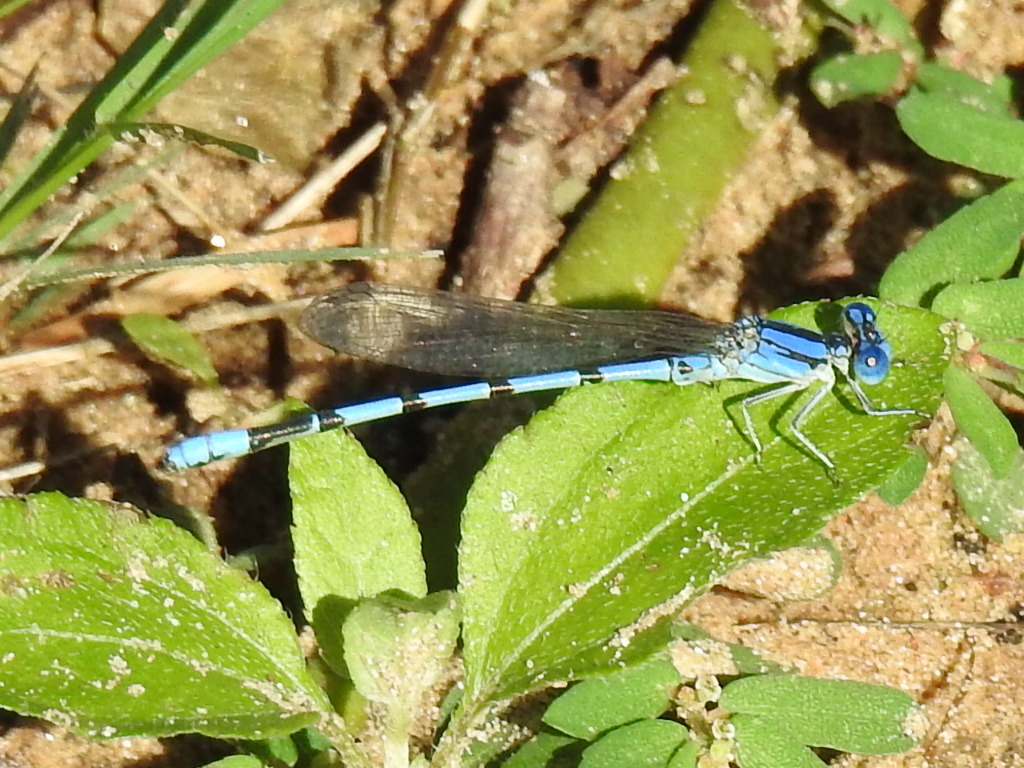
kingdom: Animalia
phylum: Arthropoda
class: Insecta
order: Odonata
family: Coenagrionidae
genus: Argia
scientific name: Argia nahuana
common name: Aztec dancer
